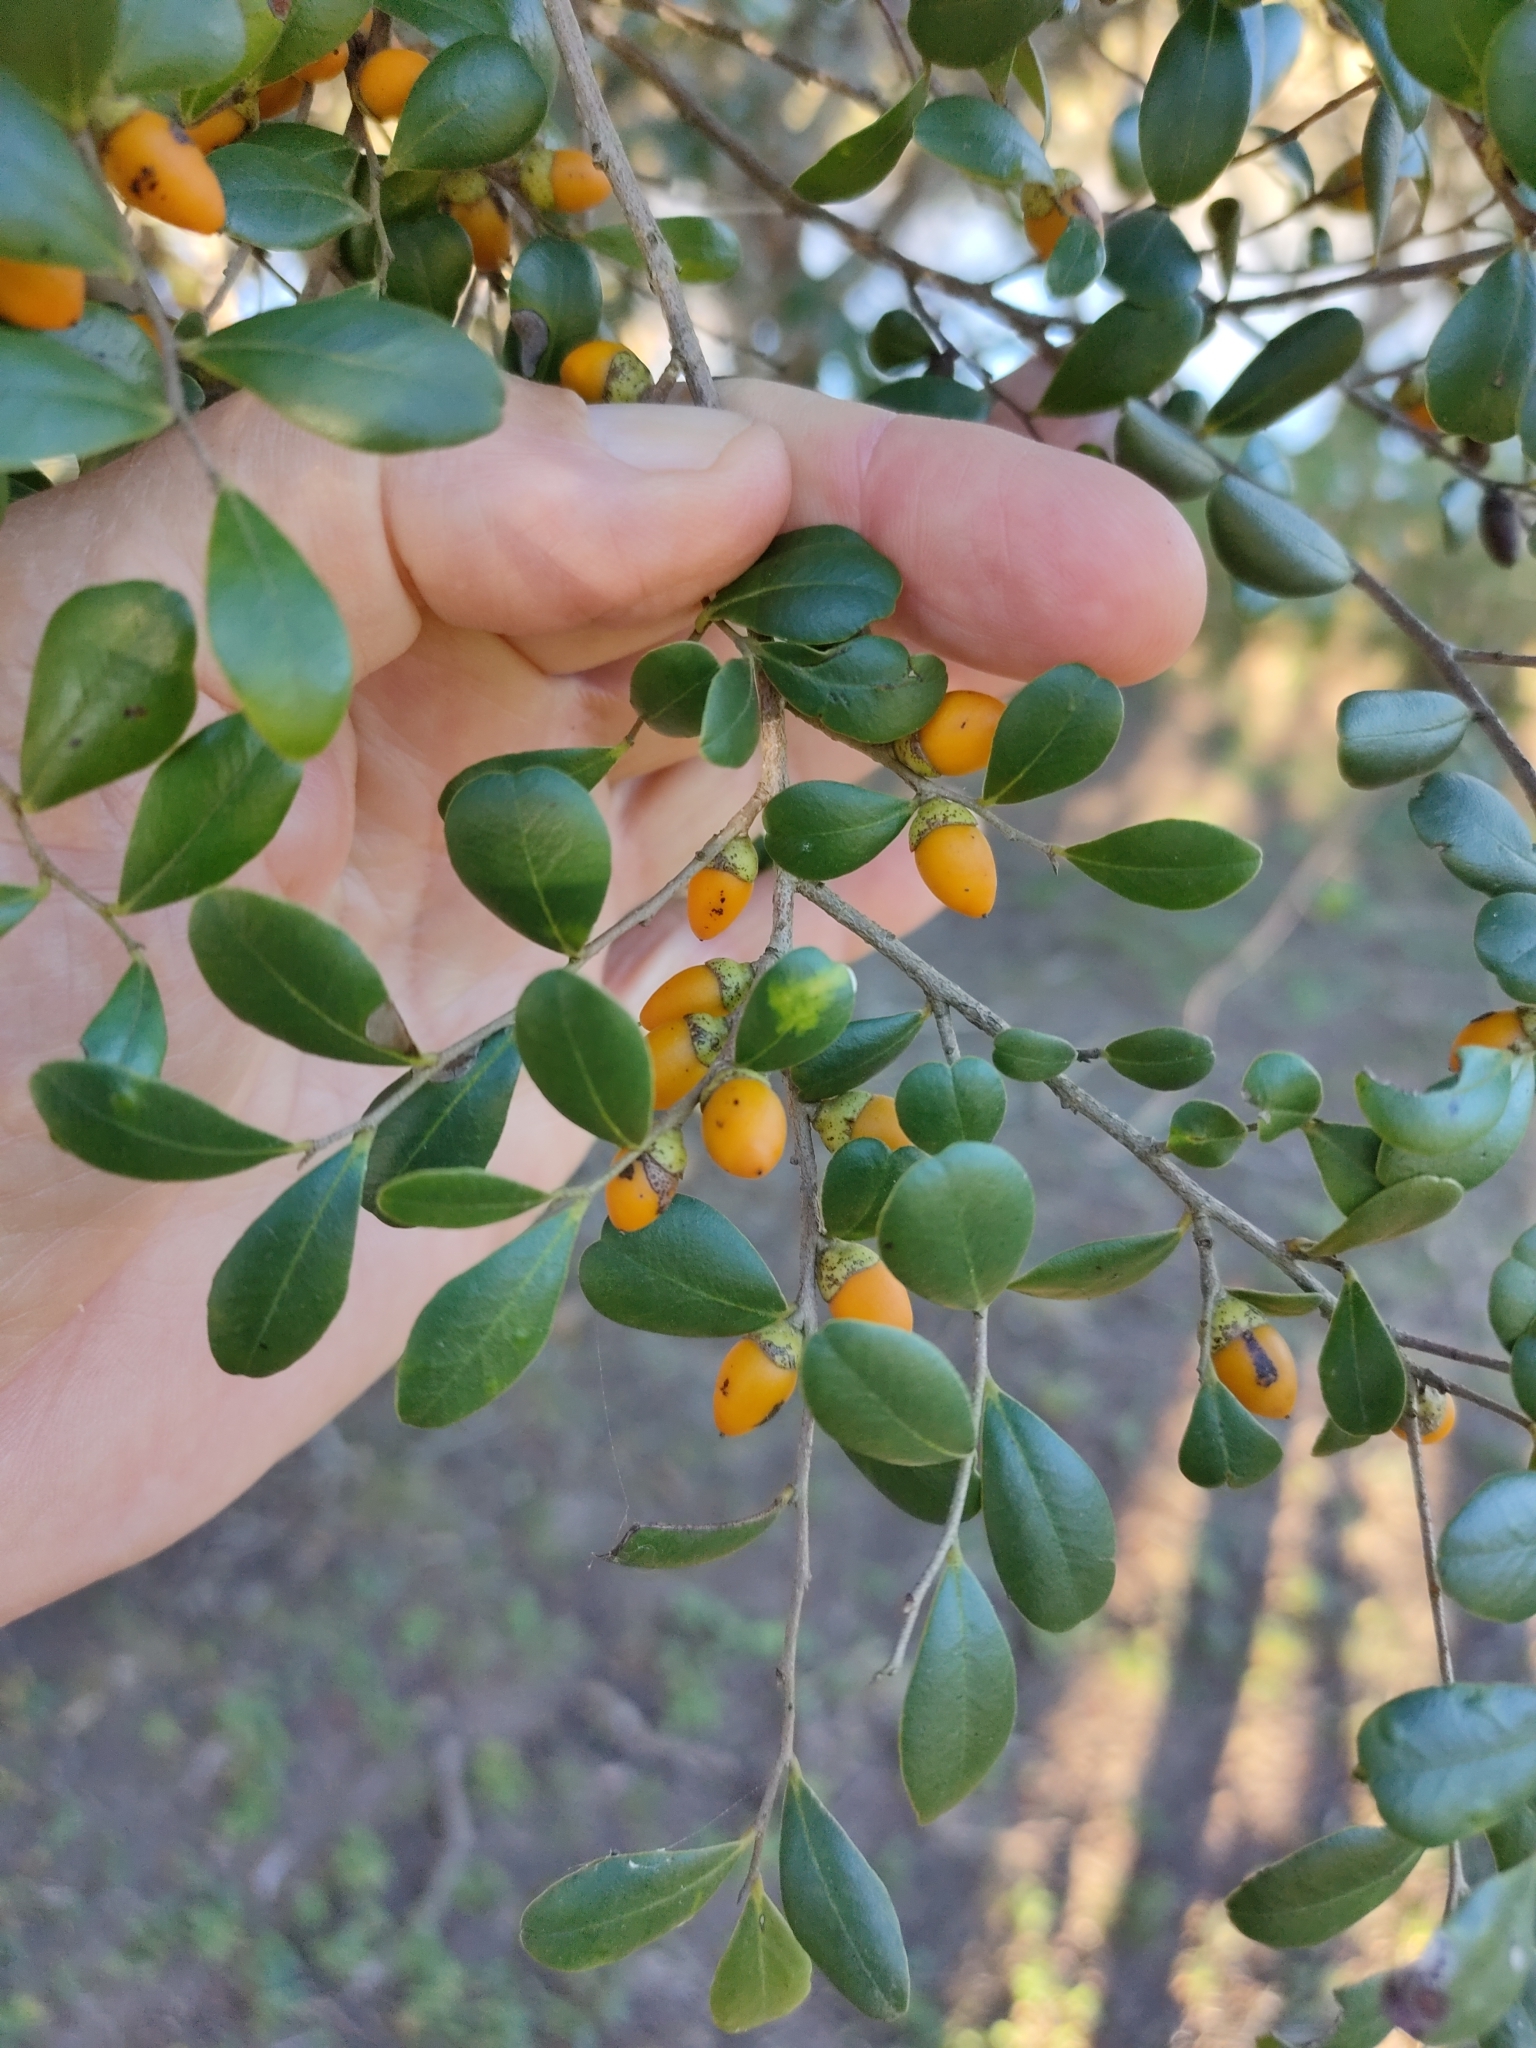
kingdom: Plantae
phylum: Tracheophyta
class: Magnoliopsida
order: Ericales
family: Ebenaceae
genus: Diospyros
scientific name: Diospyros humilis
